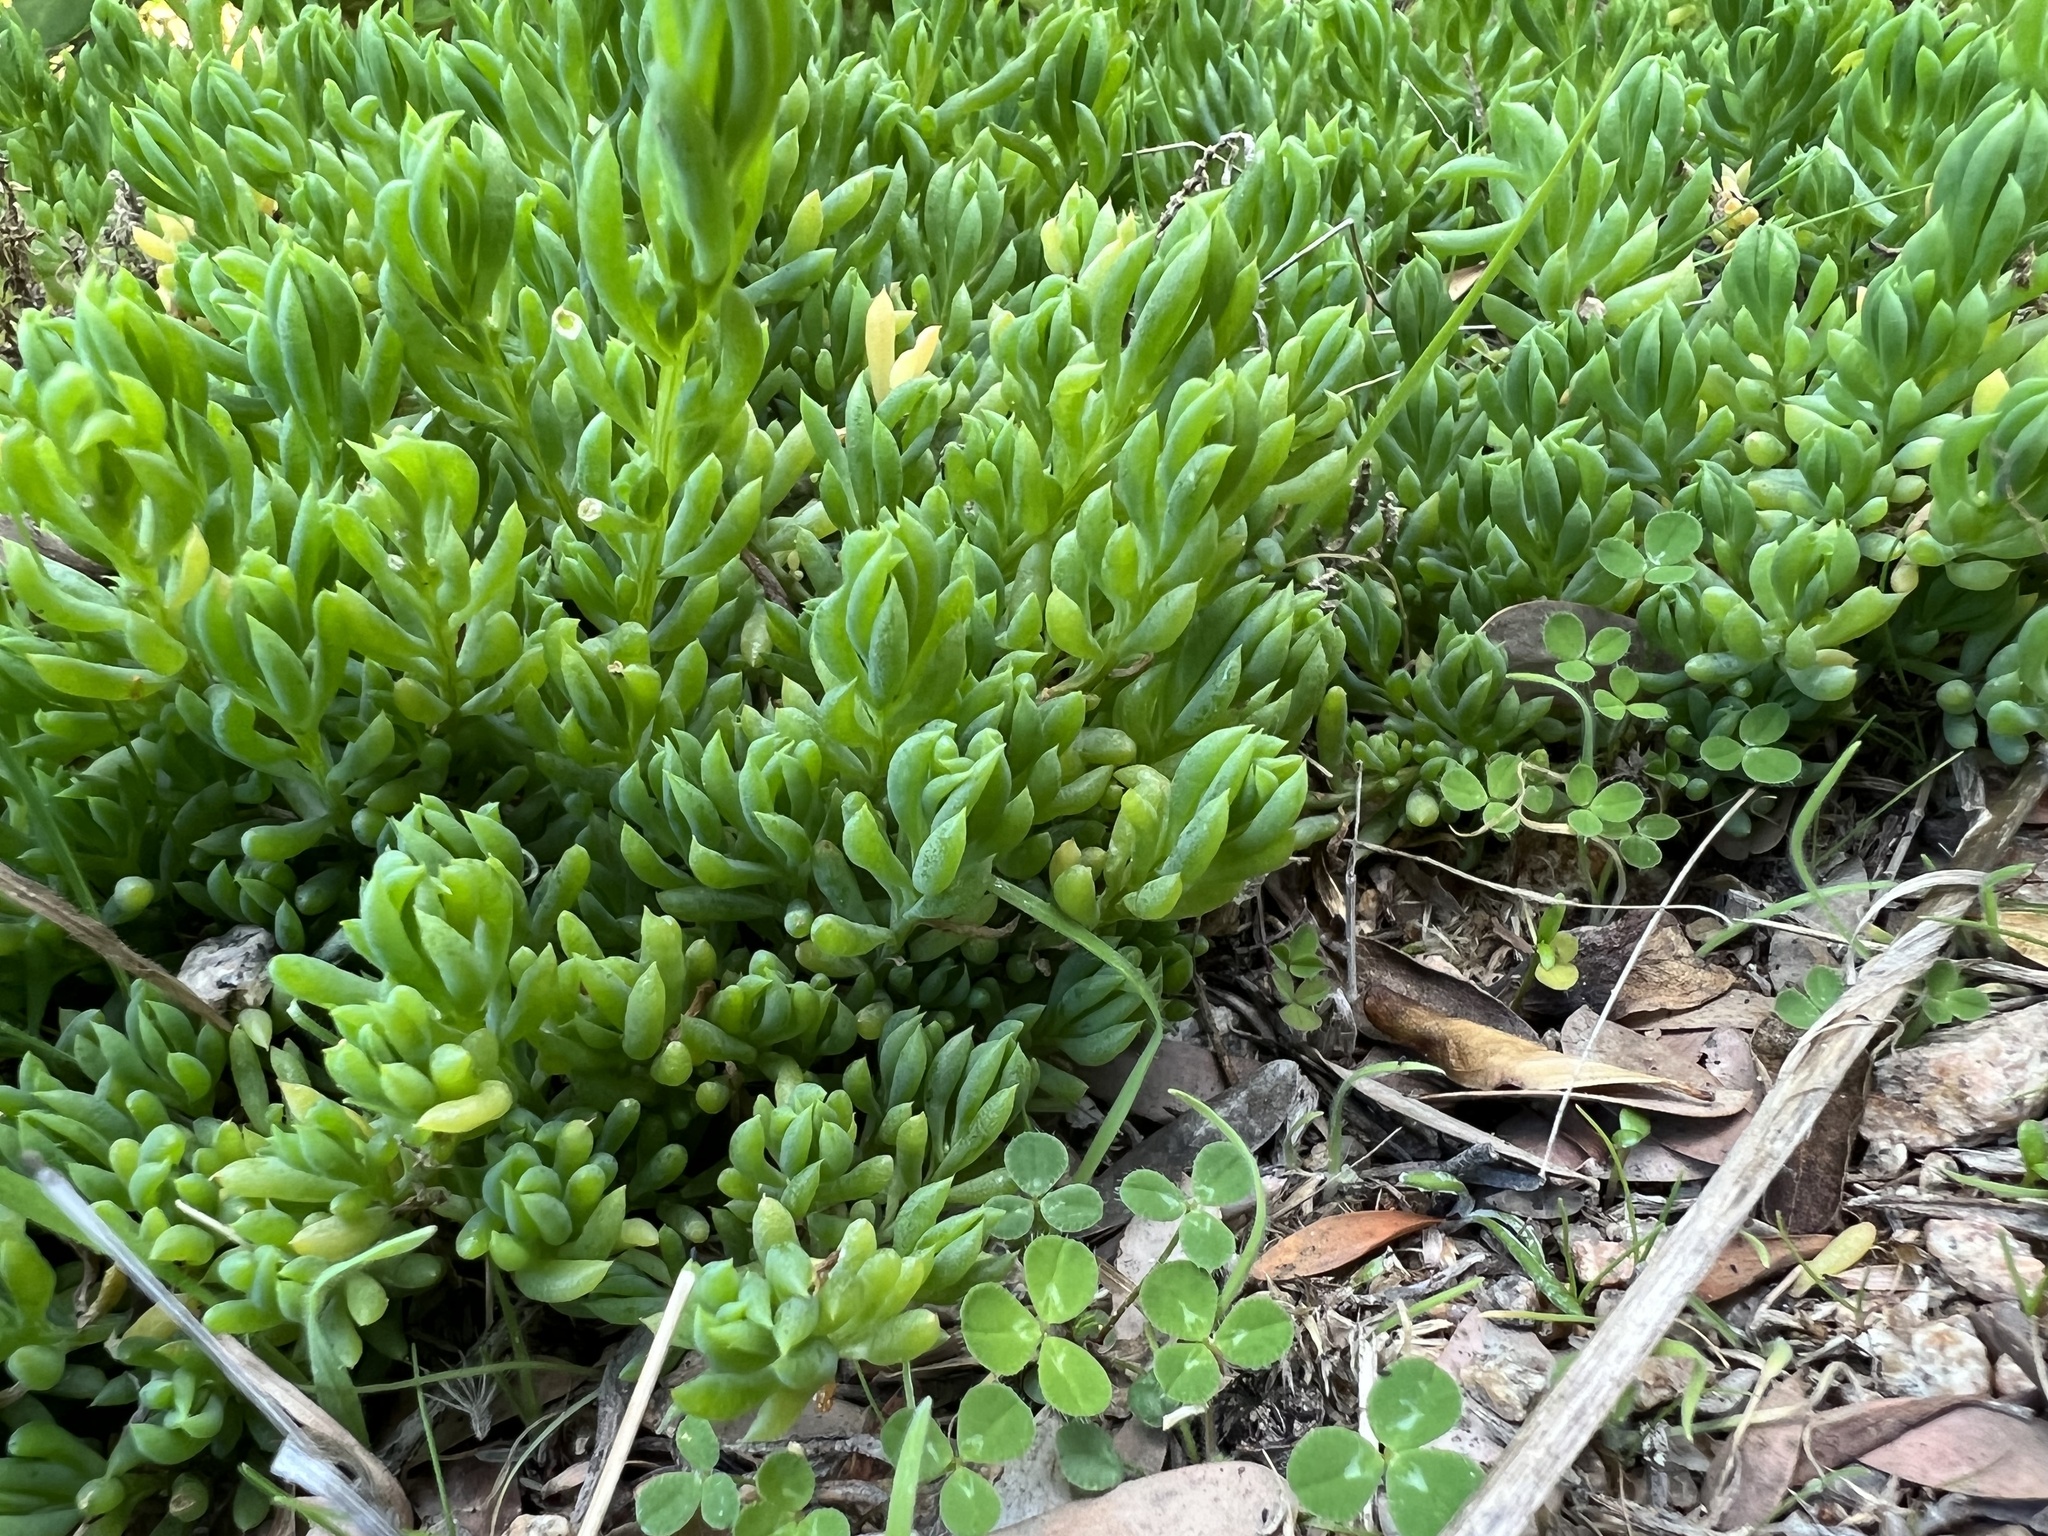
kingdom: Plantae
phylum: Tracheophyta
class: Magnoliopsida
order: Caryophyllales
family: Amaranthaceae
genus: Threlkeldia
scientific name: Threlkeldia diffusa
